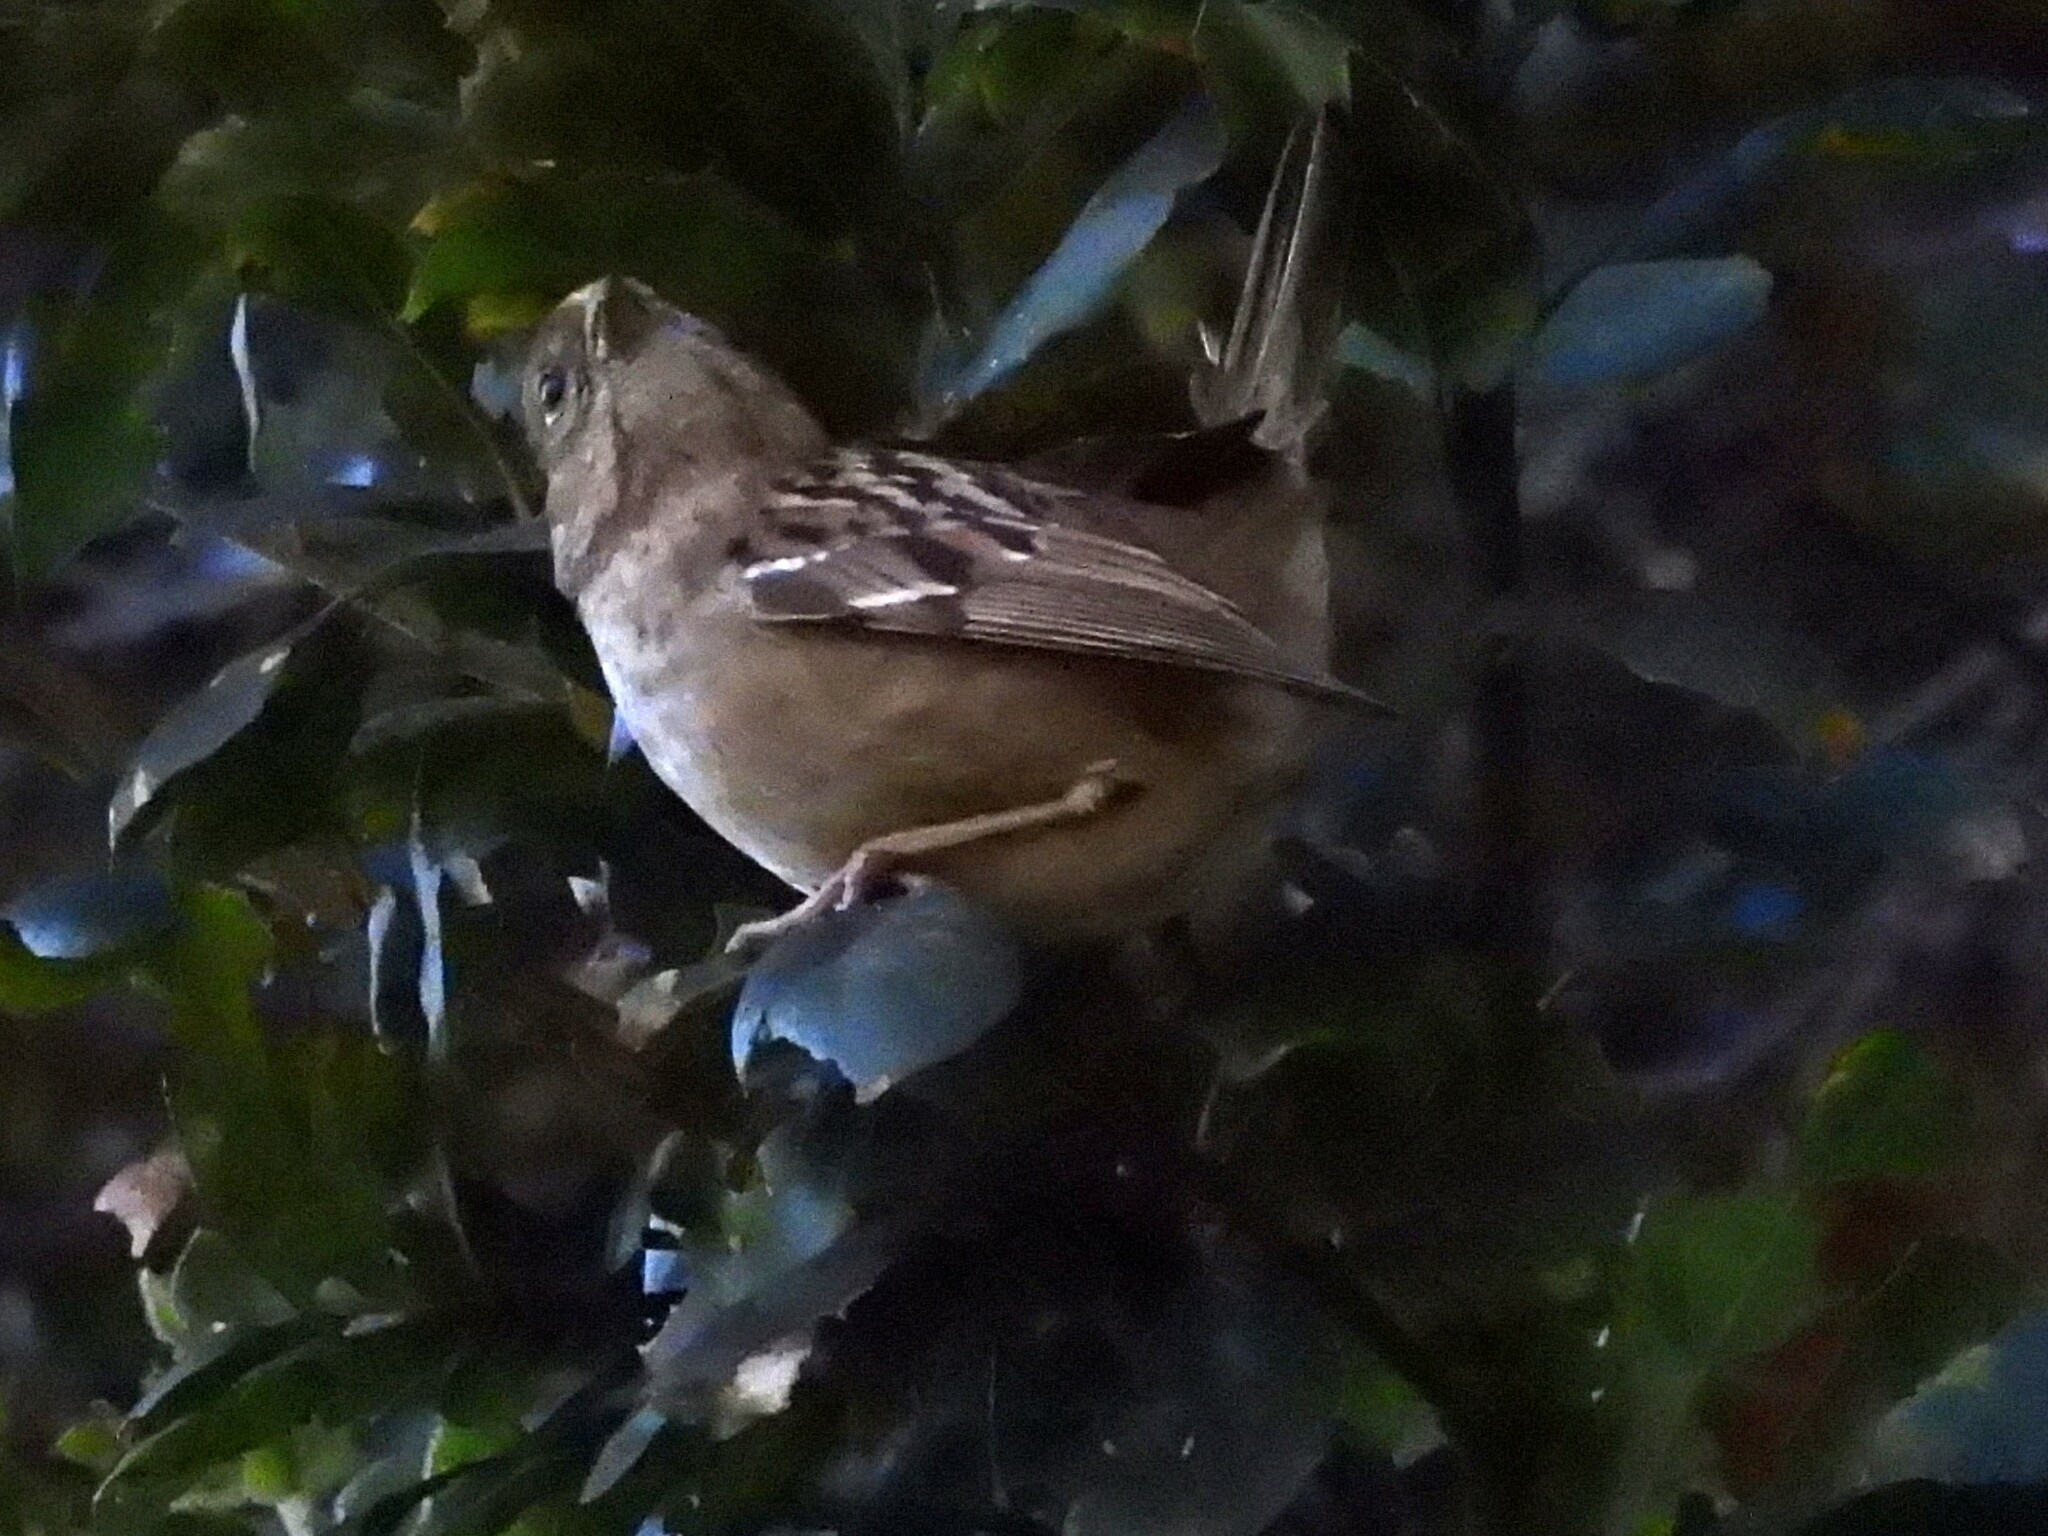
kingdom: Animalia
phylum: Chordata
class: Aves
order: Passeriformes
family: Passerellidae
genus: Zonotrichia
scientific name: Zonotrichia atricapilla
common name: Golden-crowned sparrow
